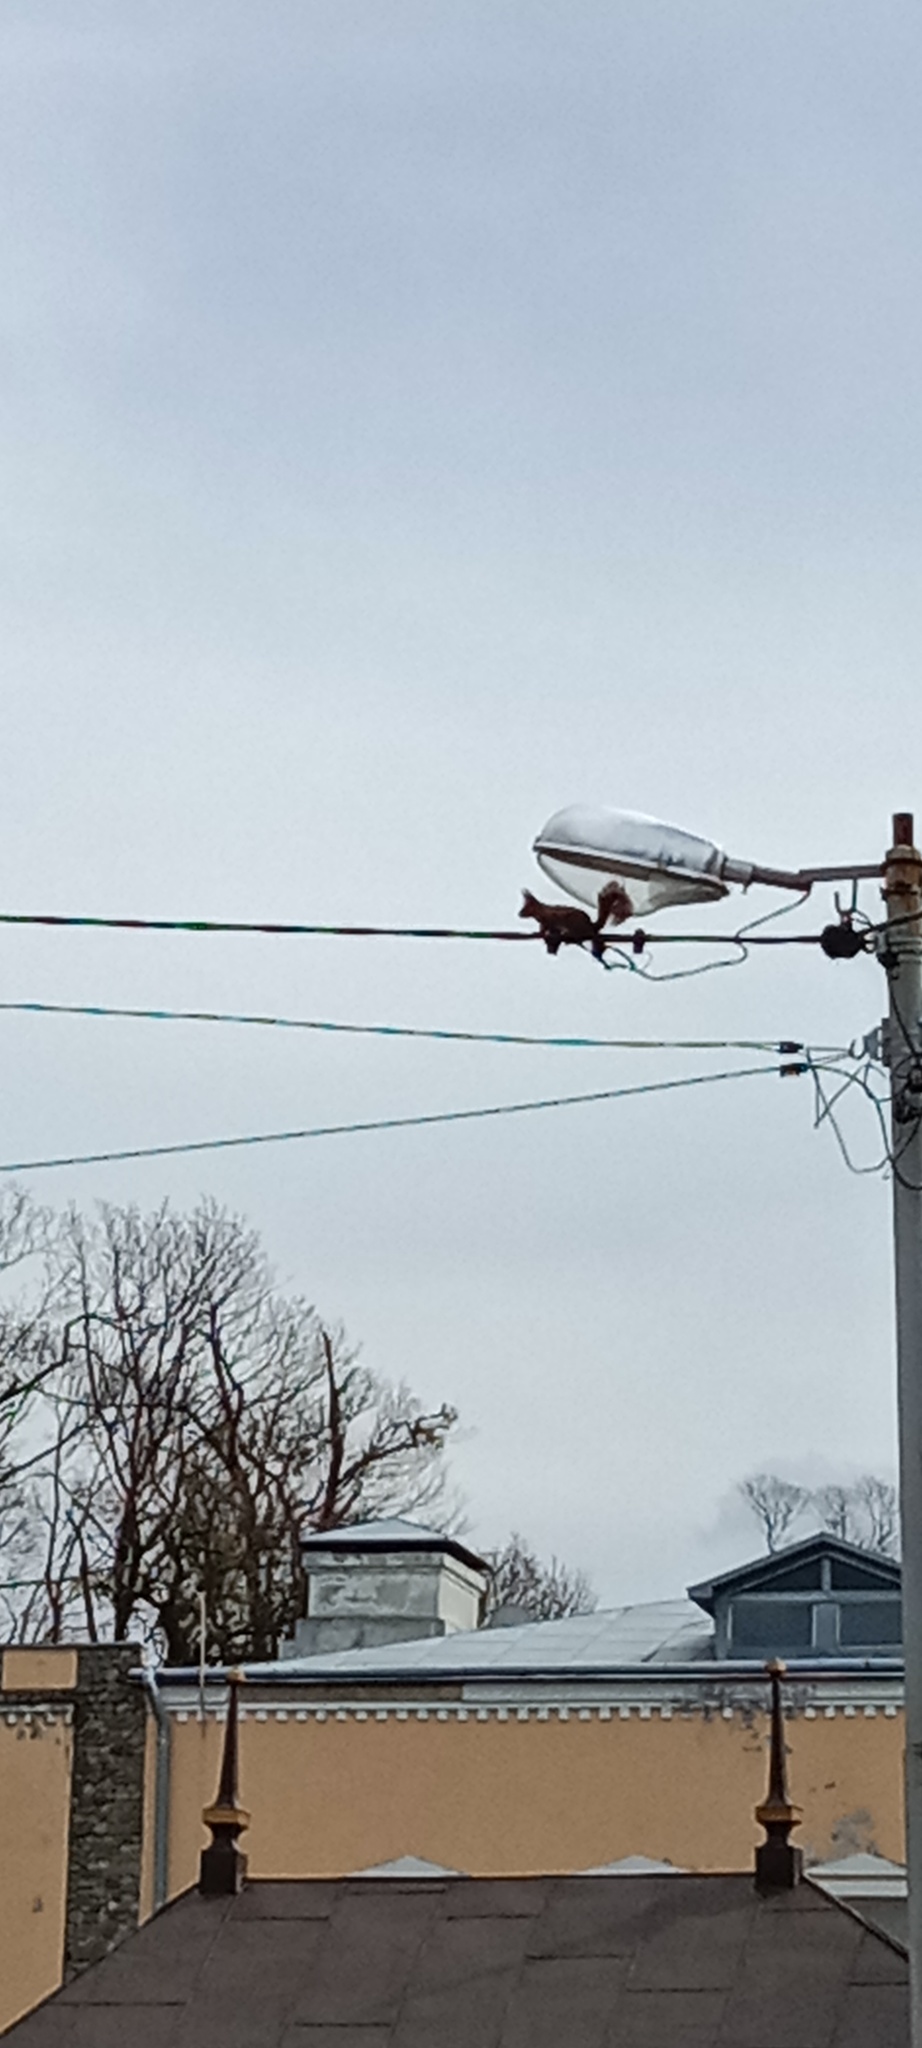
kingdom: Animalia
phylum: Chordata
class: Mammalia
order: Rodentia
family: Sciuridae
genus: Sciurus
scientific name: Sciurus vulgaris
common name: Eurasian red squirrel
